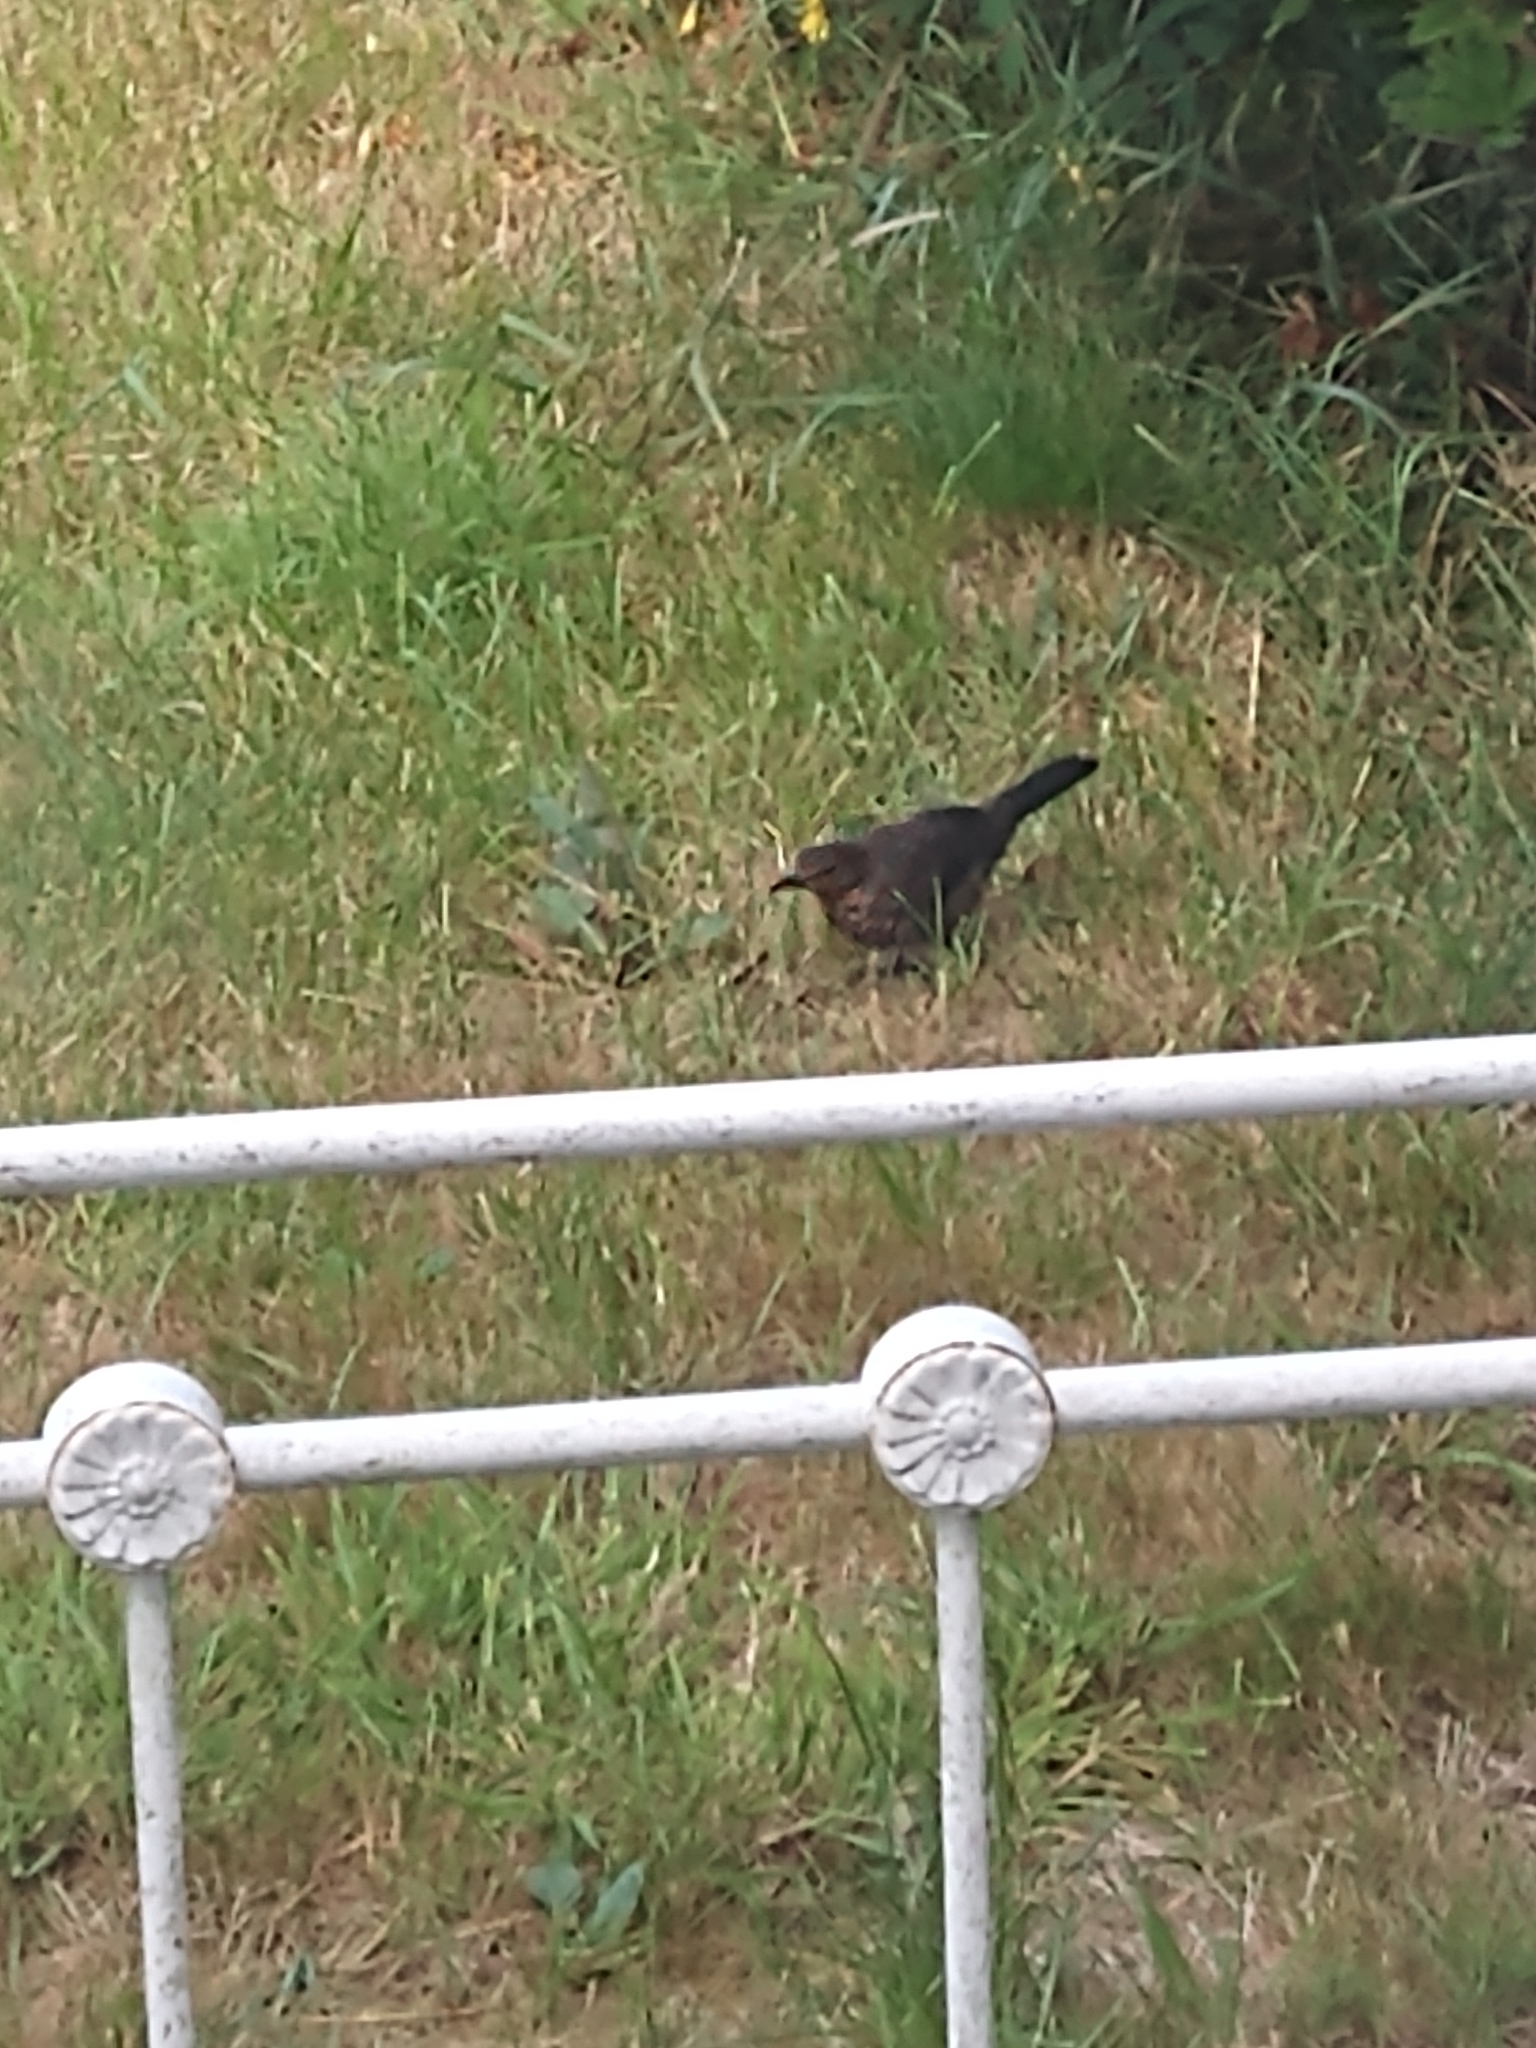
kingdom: Animalia
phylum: Chordata
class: Aves
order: Passeriformes
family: Turdidae
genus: Turdus
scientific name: Turdus merula
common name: Common blackbird
